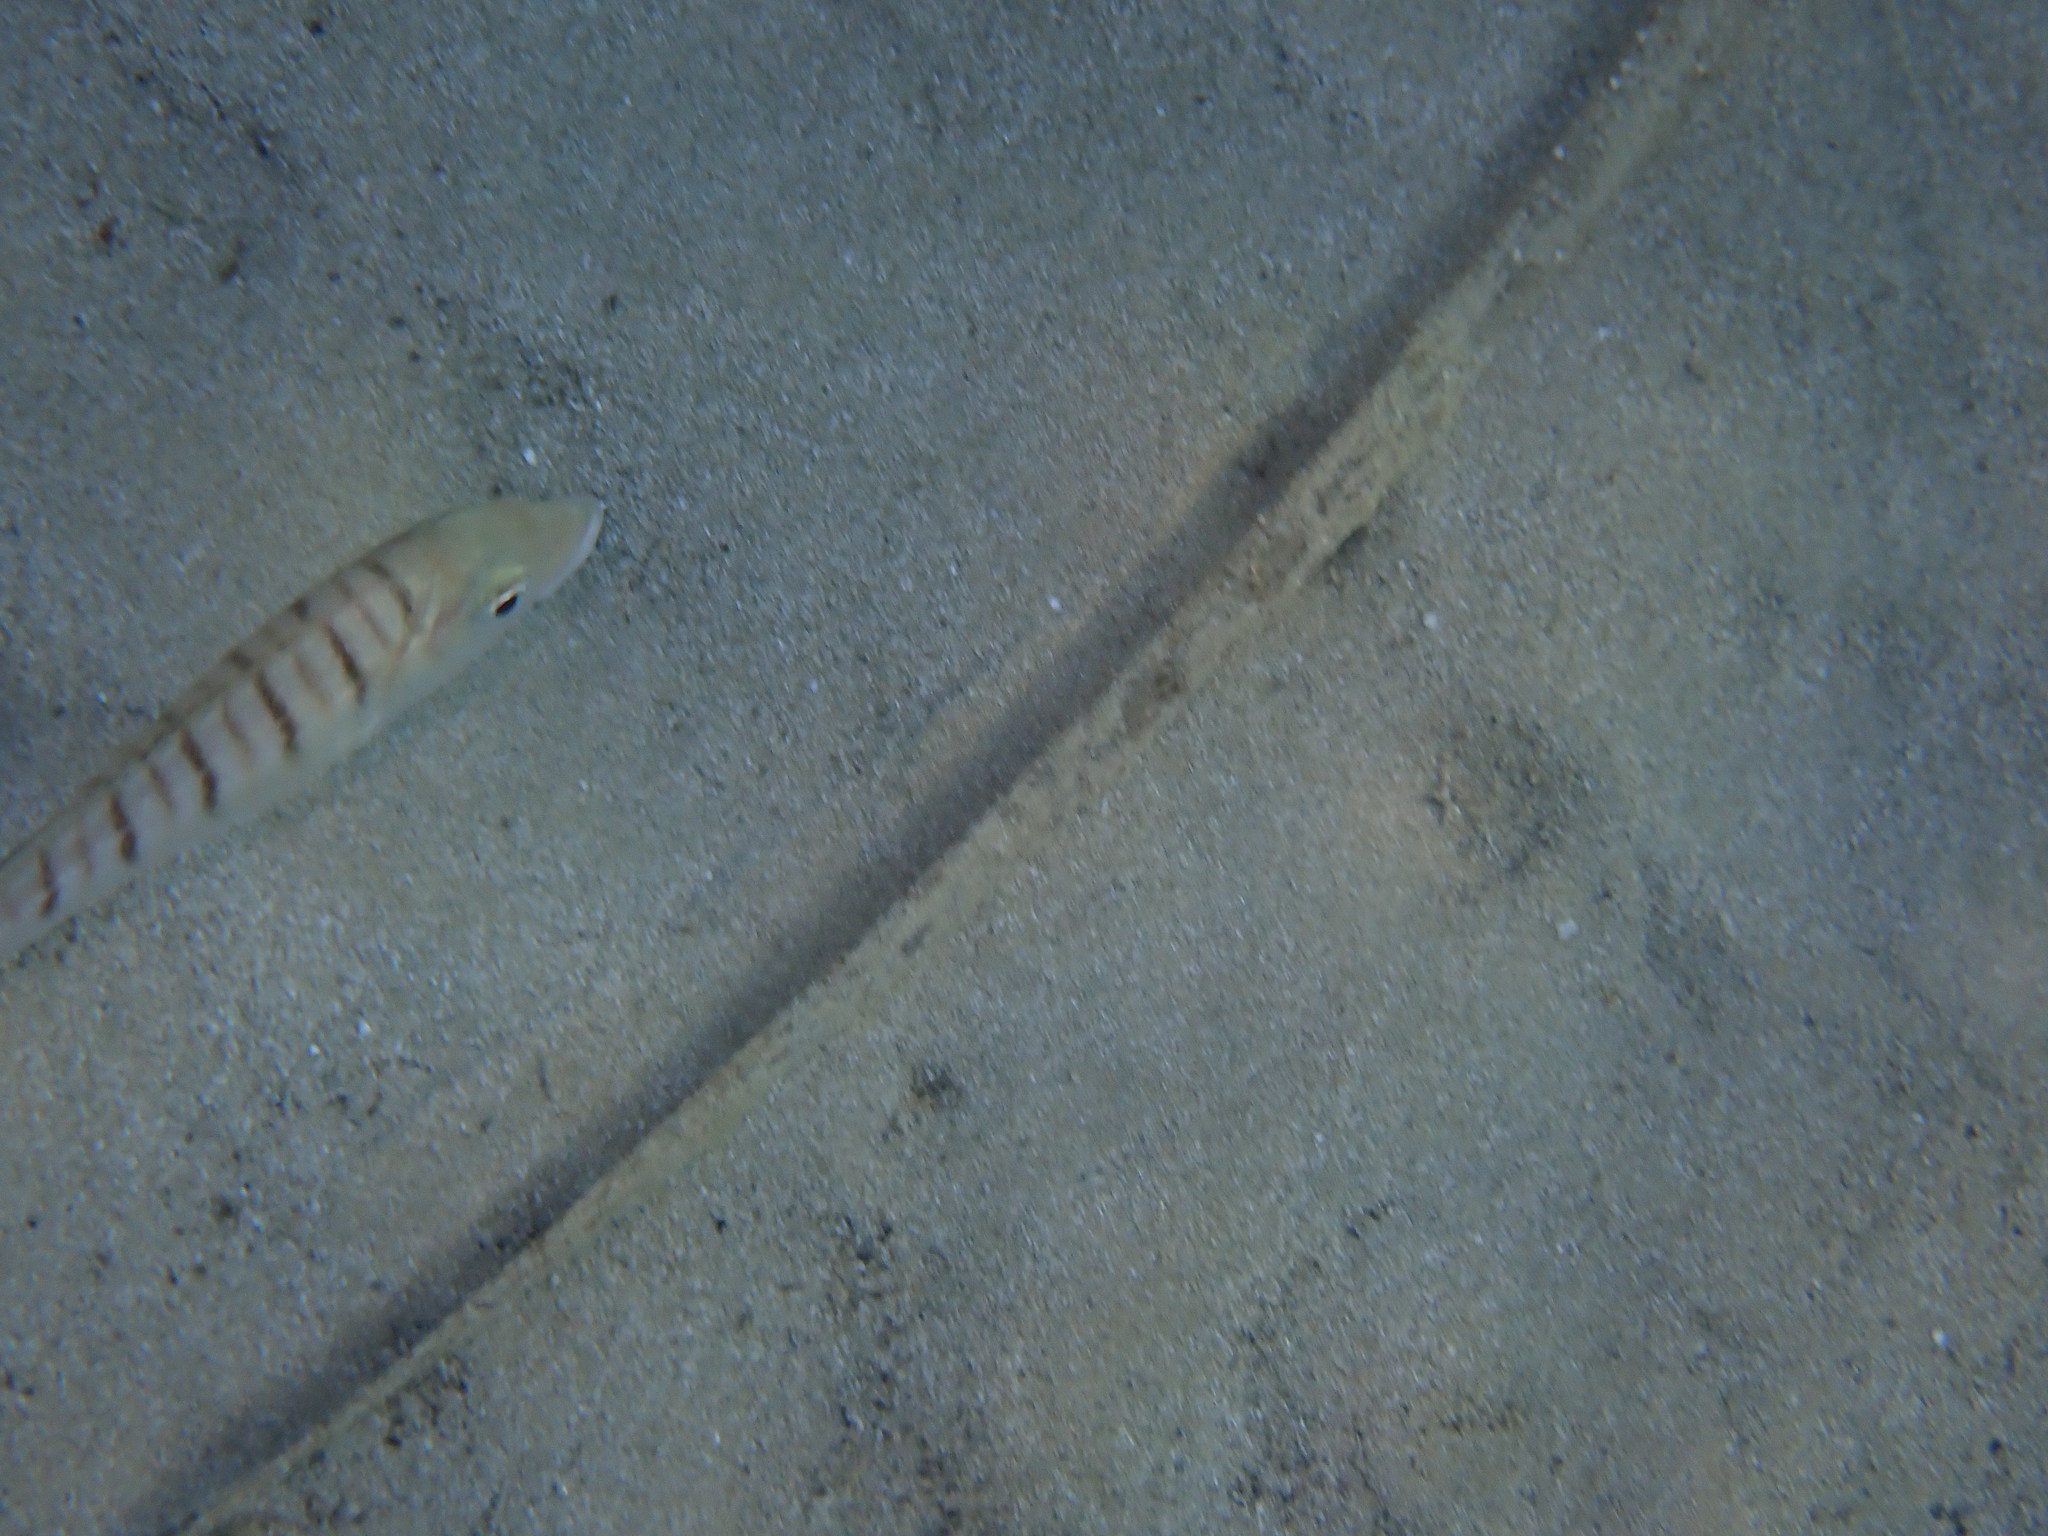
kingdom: Animalia
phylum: Chordata
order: Perciformes
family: Sparidae
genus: Lithognathus
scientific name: Lithognathus mormyrus
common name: Sand steenbras
